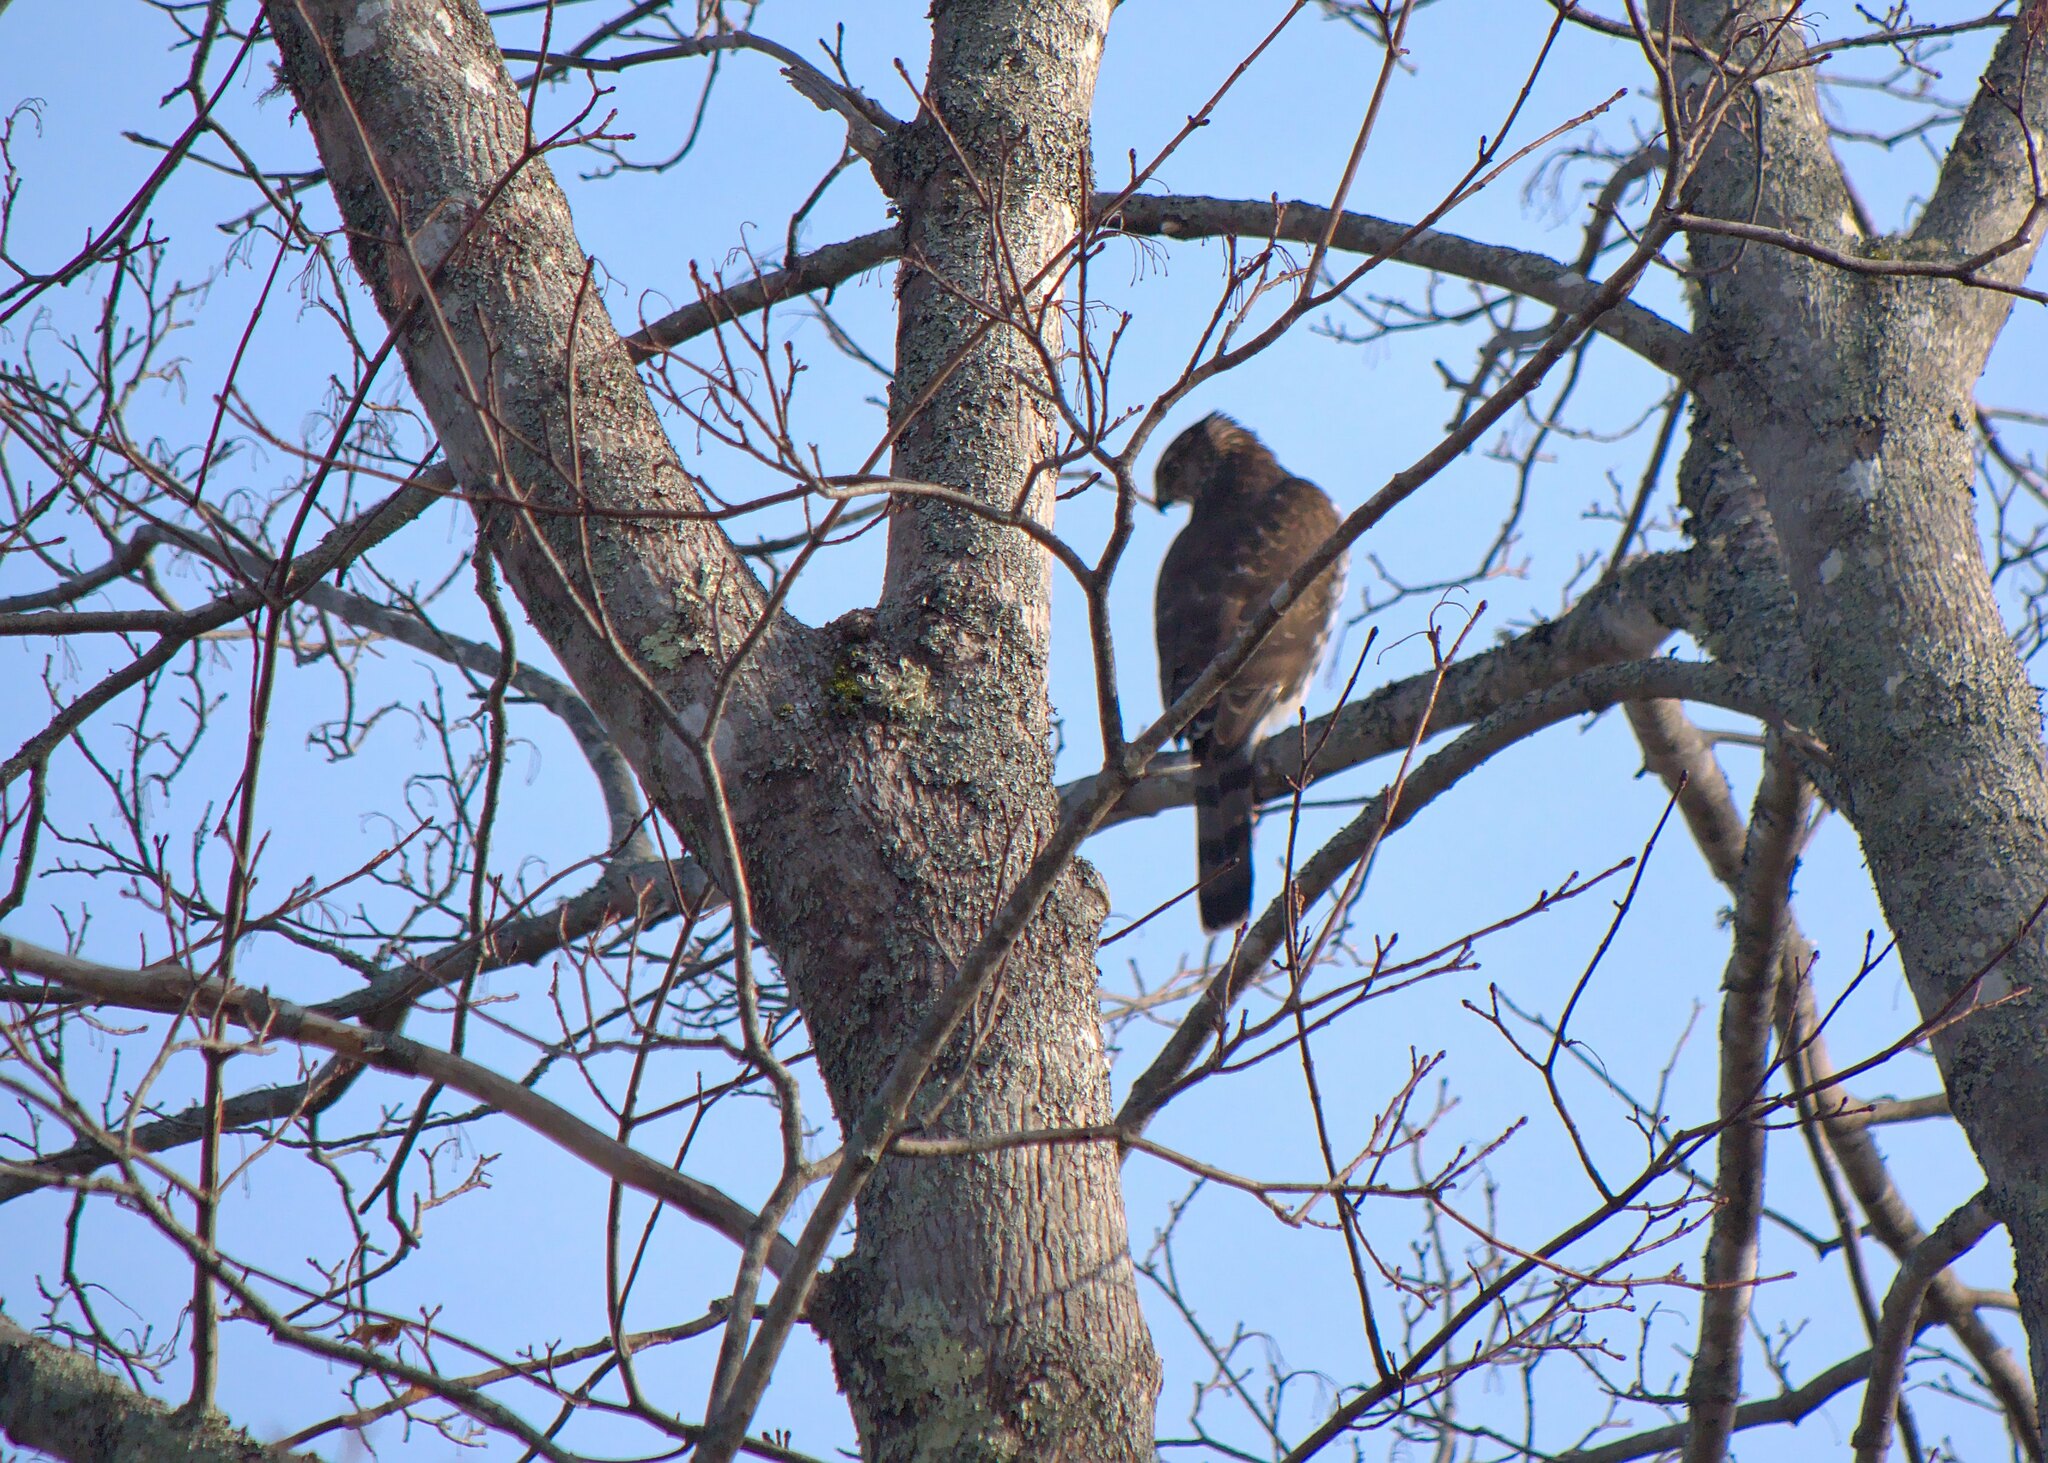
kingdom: Animalia
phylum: Chordata
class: Aves
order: Accipitriformes
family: Accipitridae
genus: Accipiter
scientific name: Accipiter cooperii
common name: Cooper's hawk
